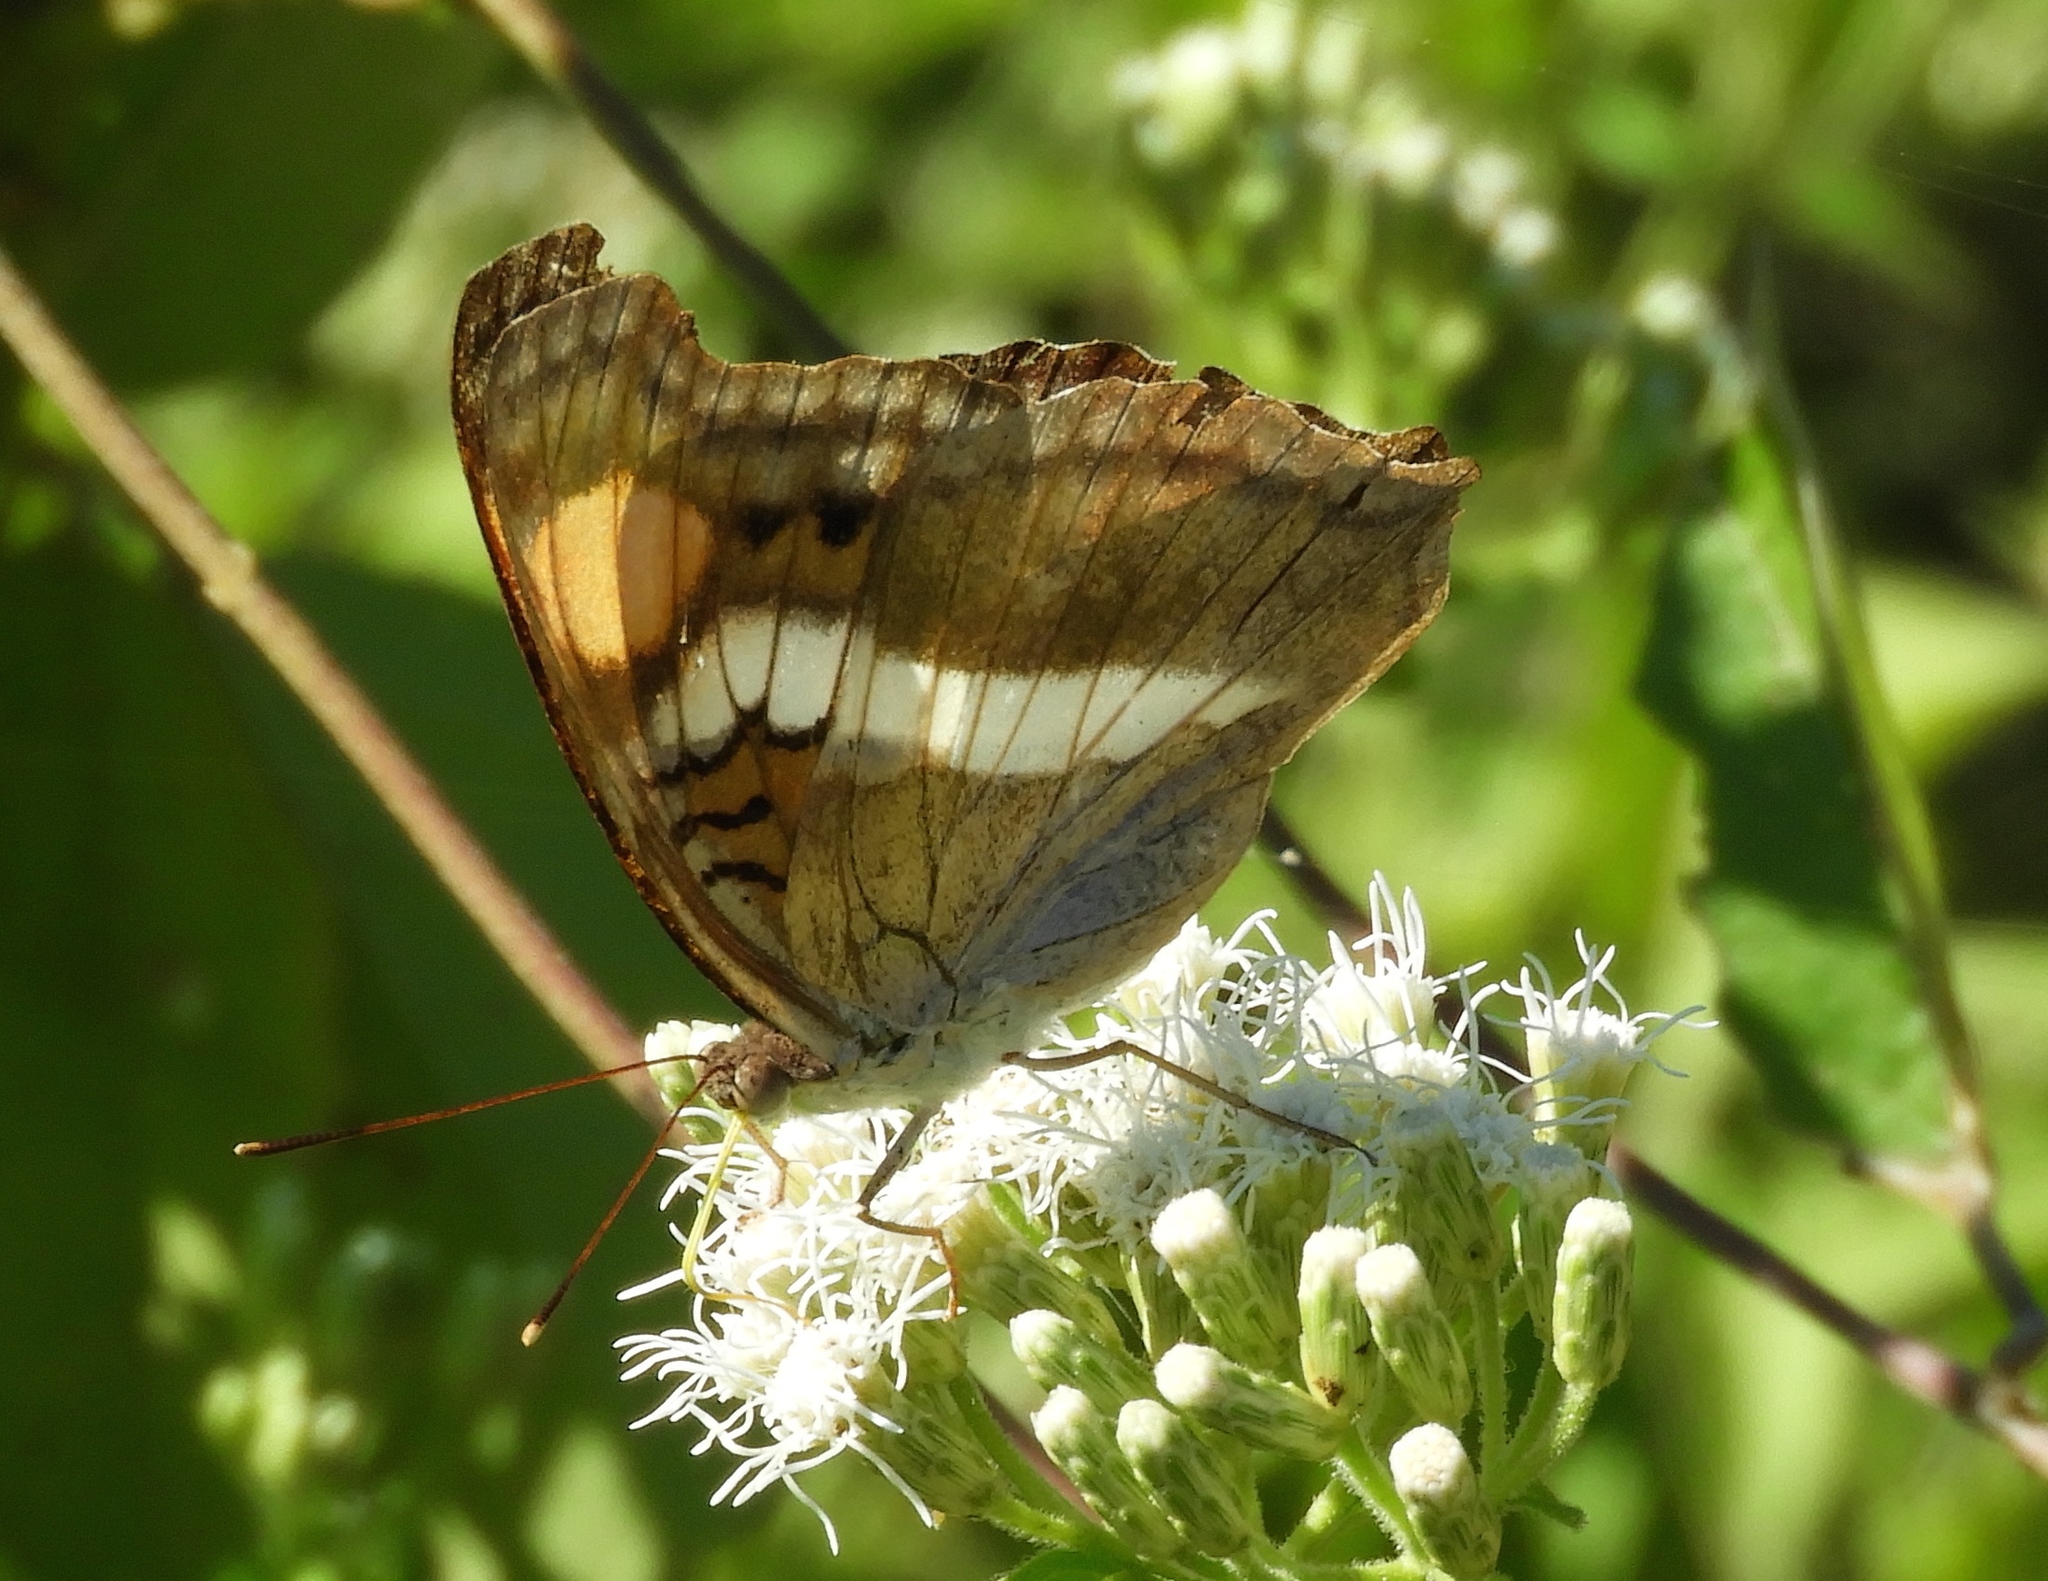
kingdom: Animalia
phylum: Arthropoda
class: Insecta
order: Lepidoptera
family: Nymphalidae
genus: Doxocopa
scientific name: Doxocopa laure
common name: Silver emperor
